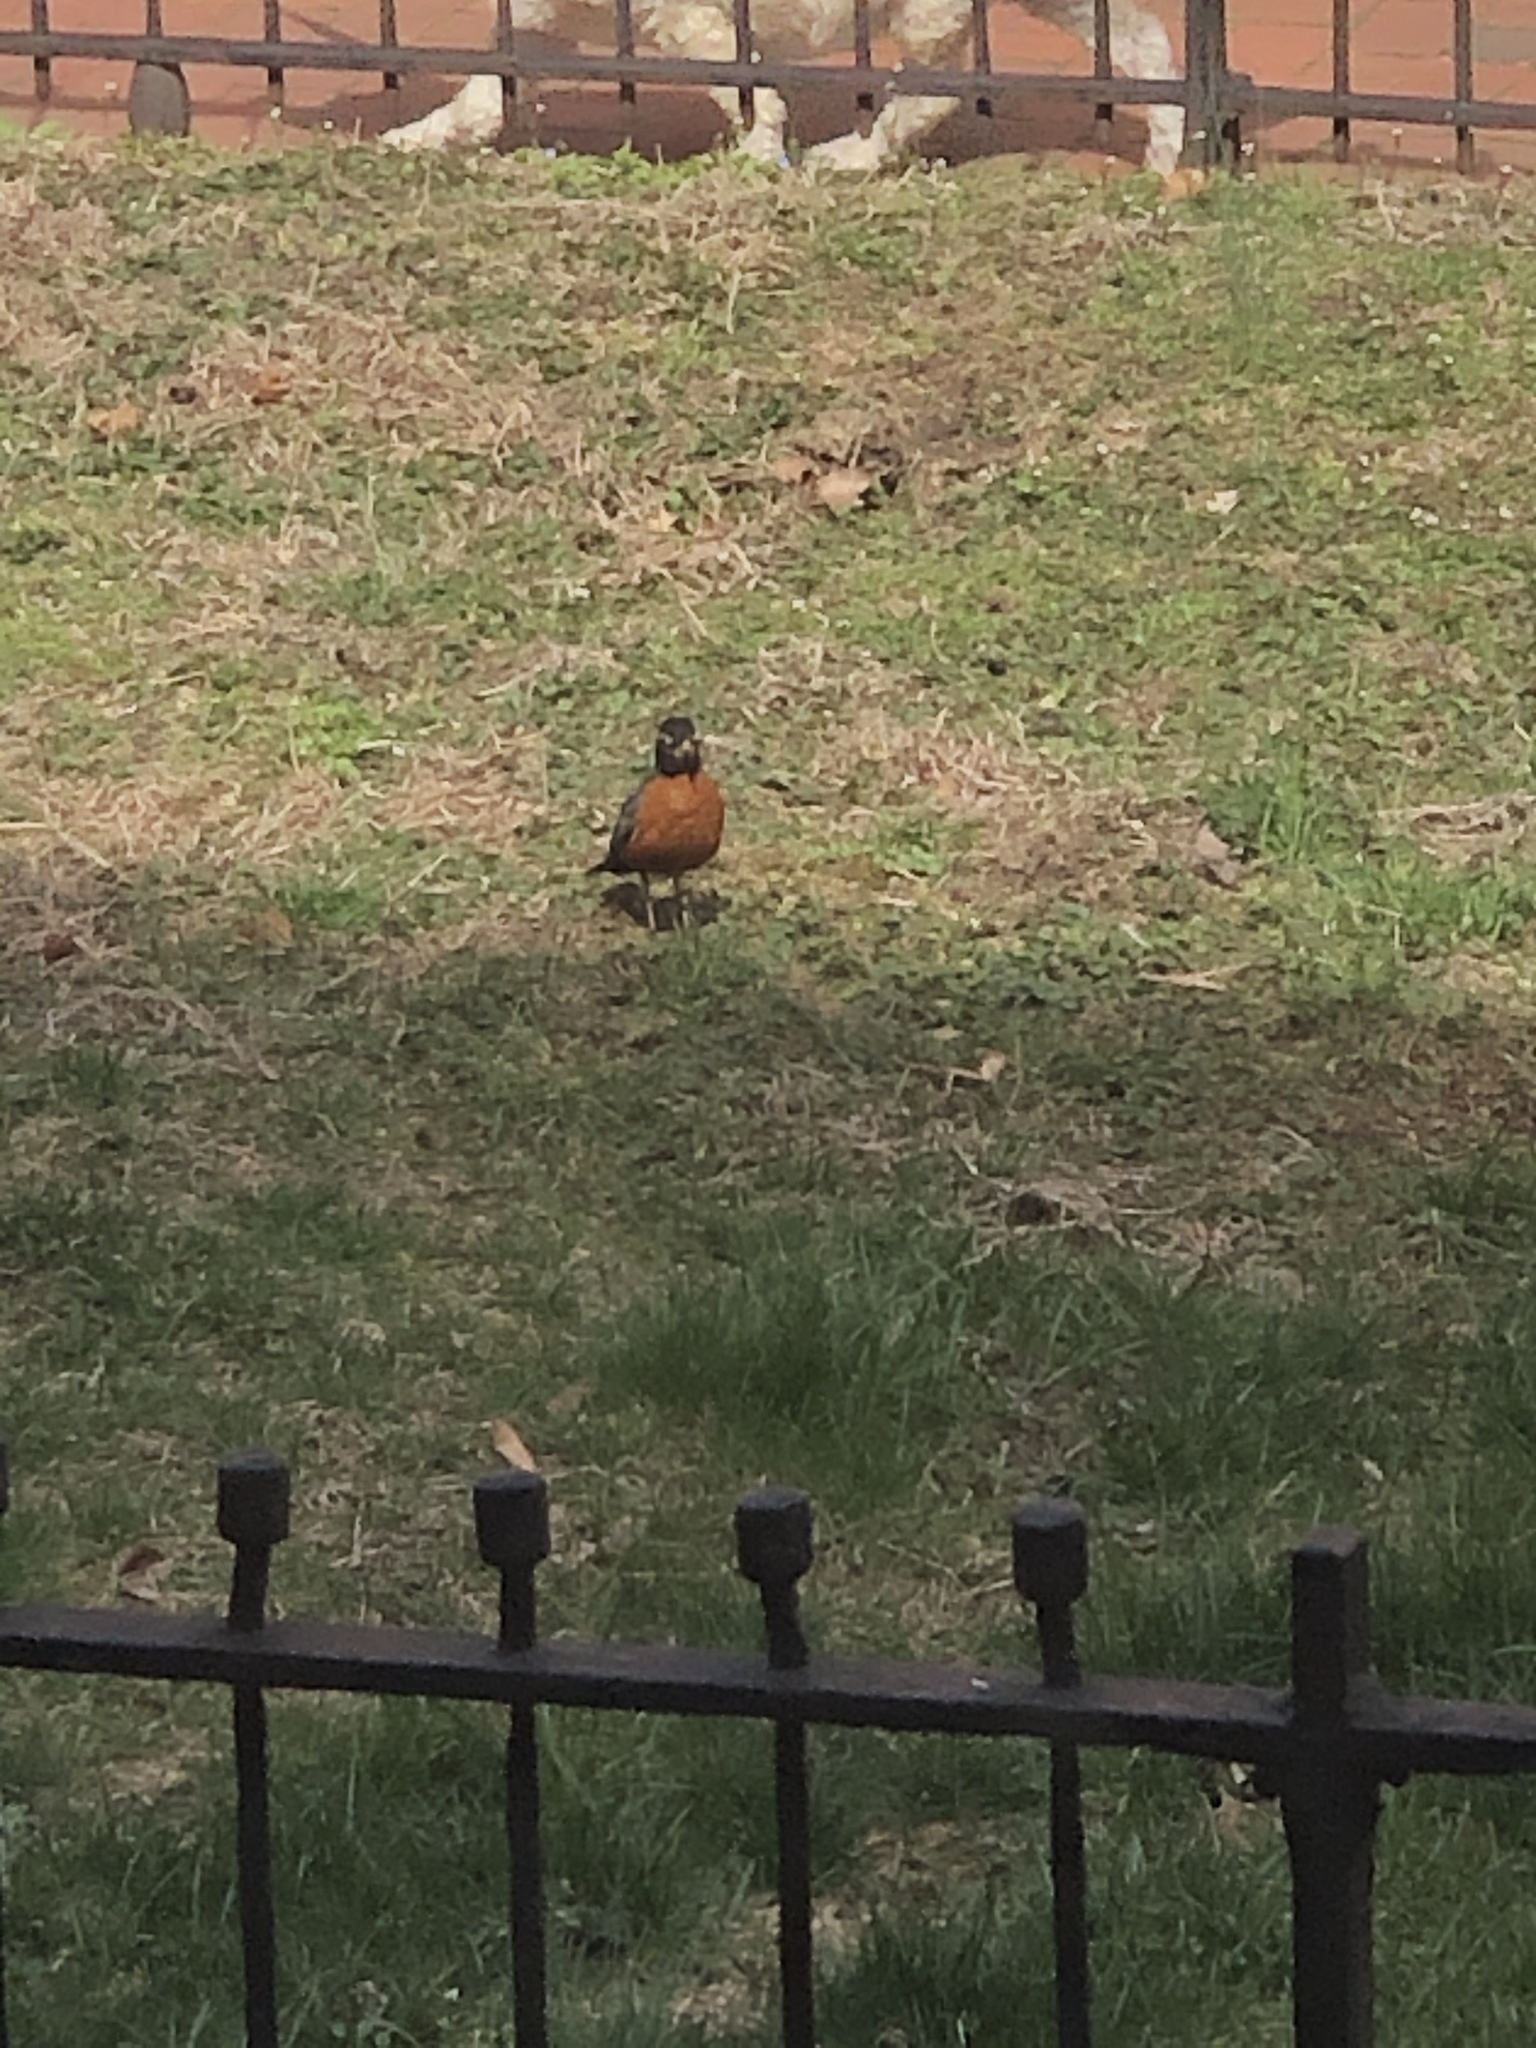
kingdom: Animalia
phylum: Chordata
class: Aves
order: Passeriformes
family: Turdidae
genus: Turdus
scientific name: Turdus migratorius
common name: American robin
